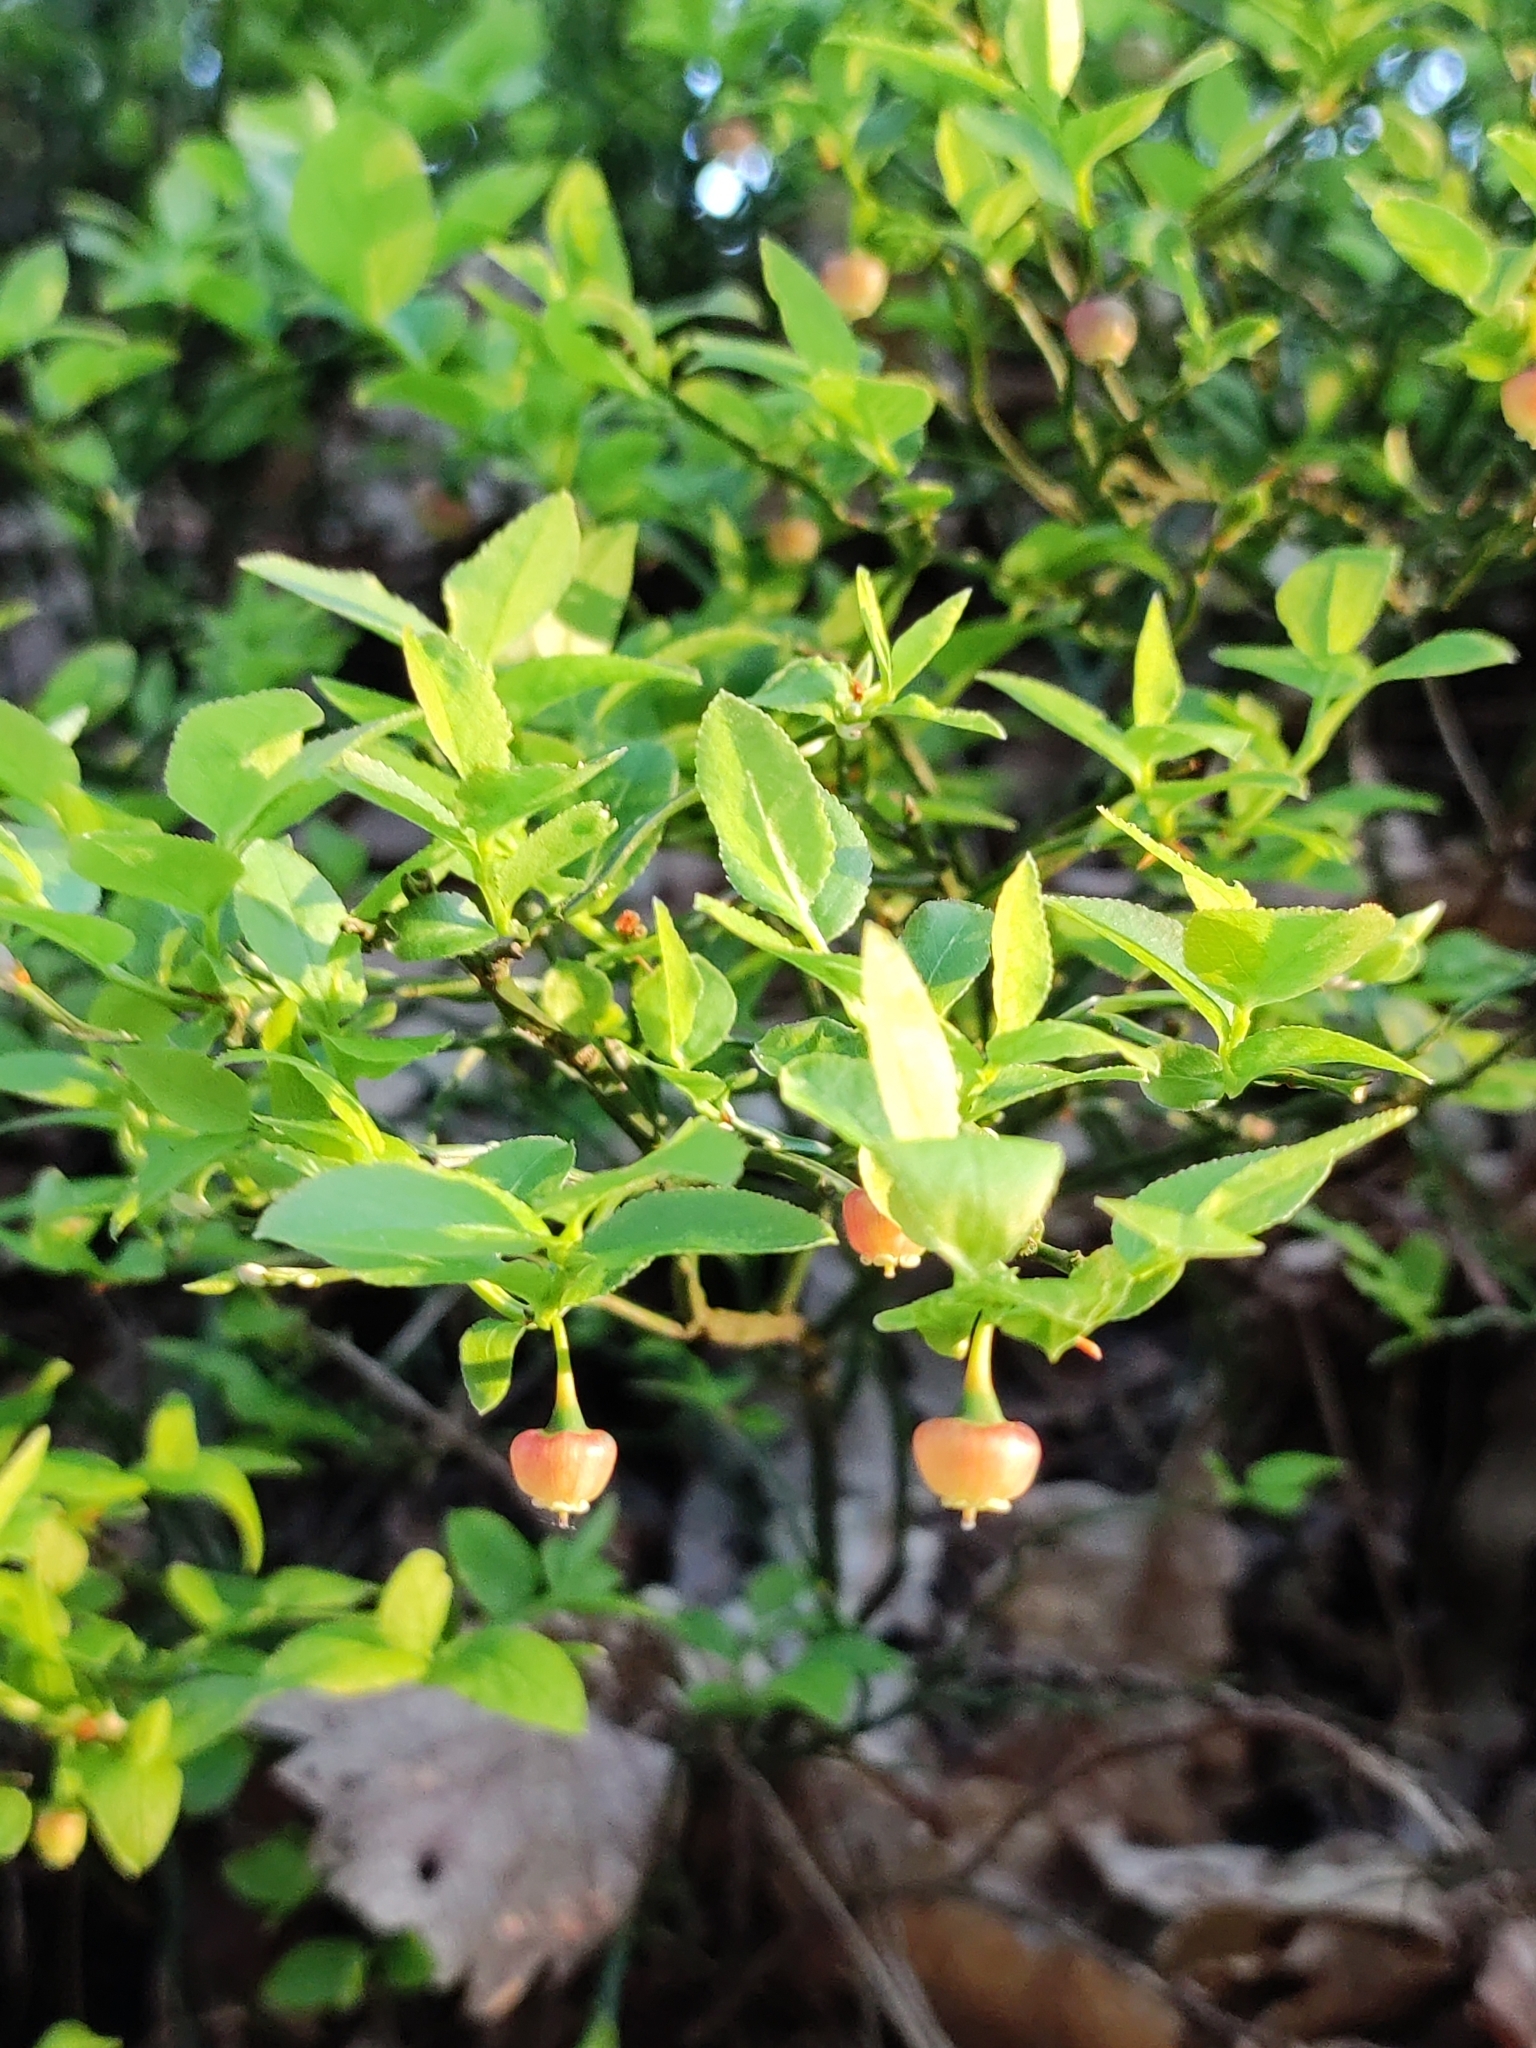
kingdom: Plantae
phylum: Tracheophyta
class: Magnoliopsida
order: Ericales
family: Ericaceae
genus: Vaccinium
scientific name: Vaccinium myrtillus
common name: Bilberry
